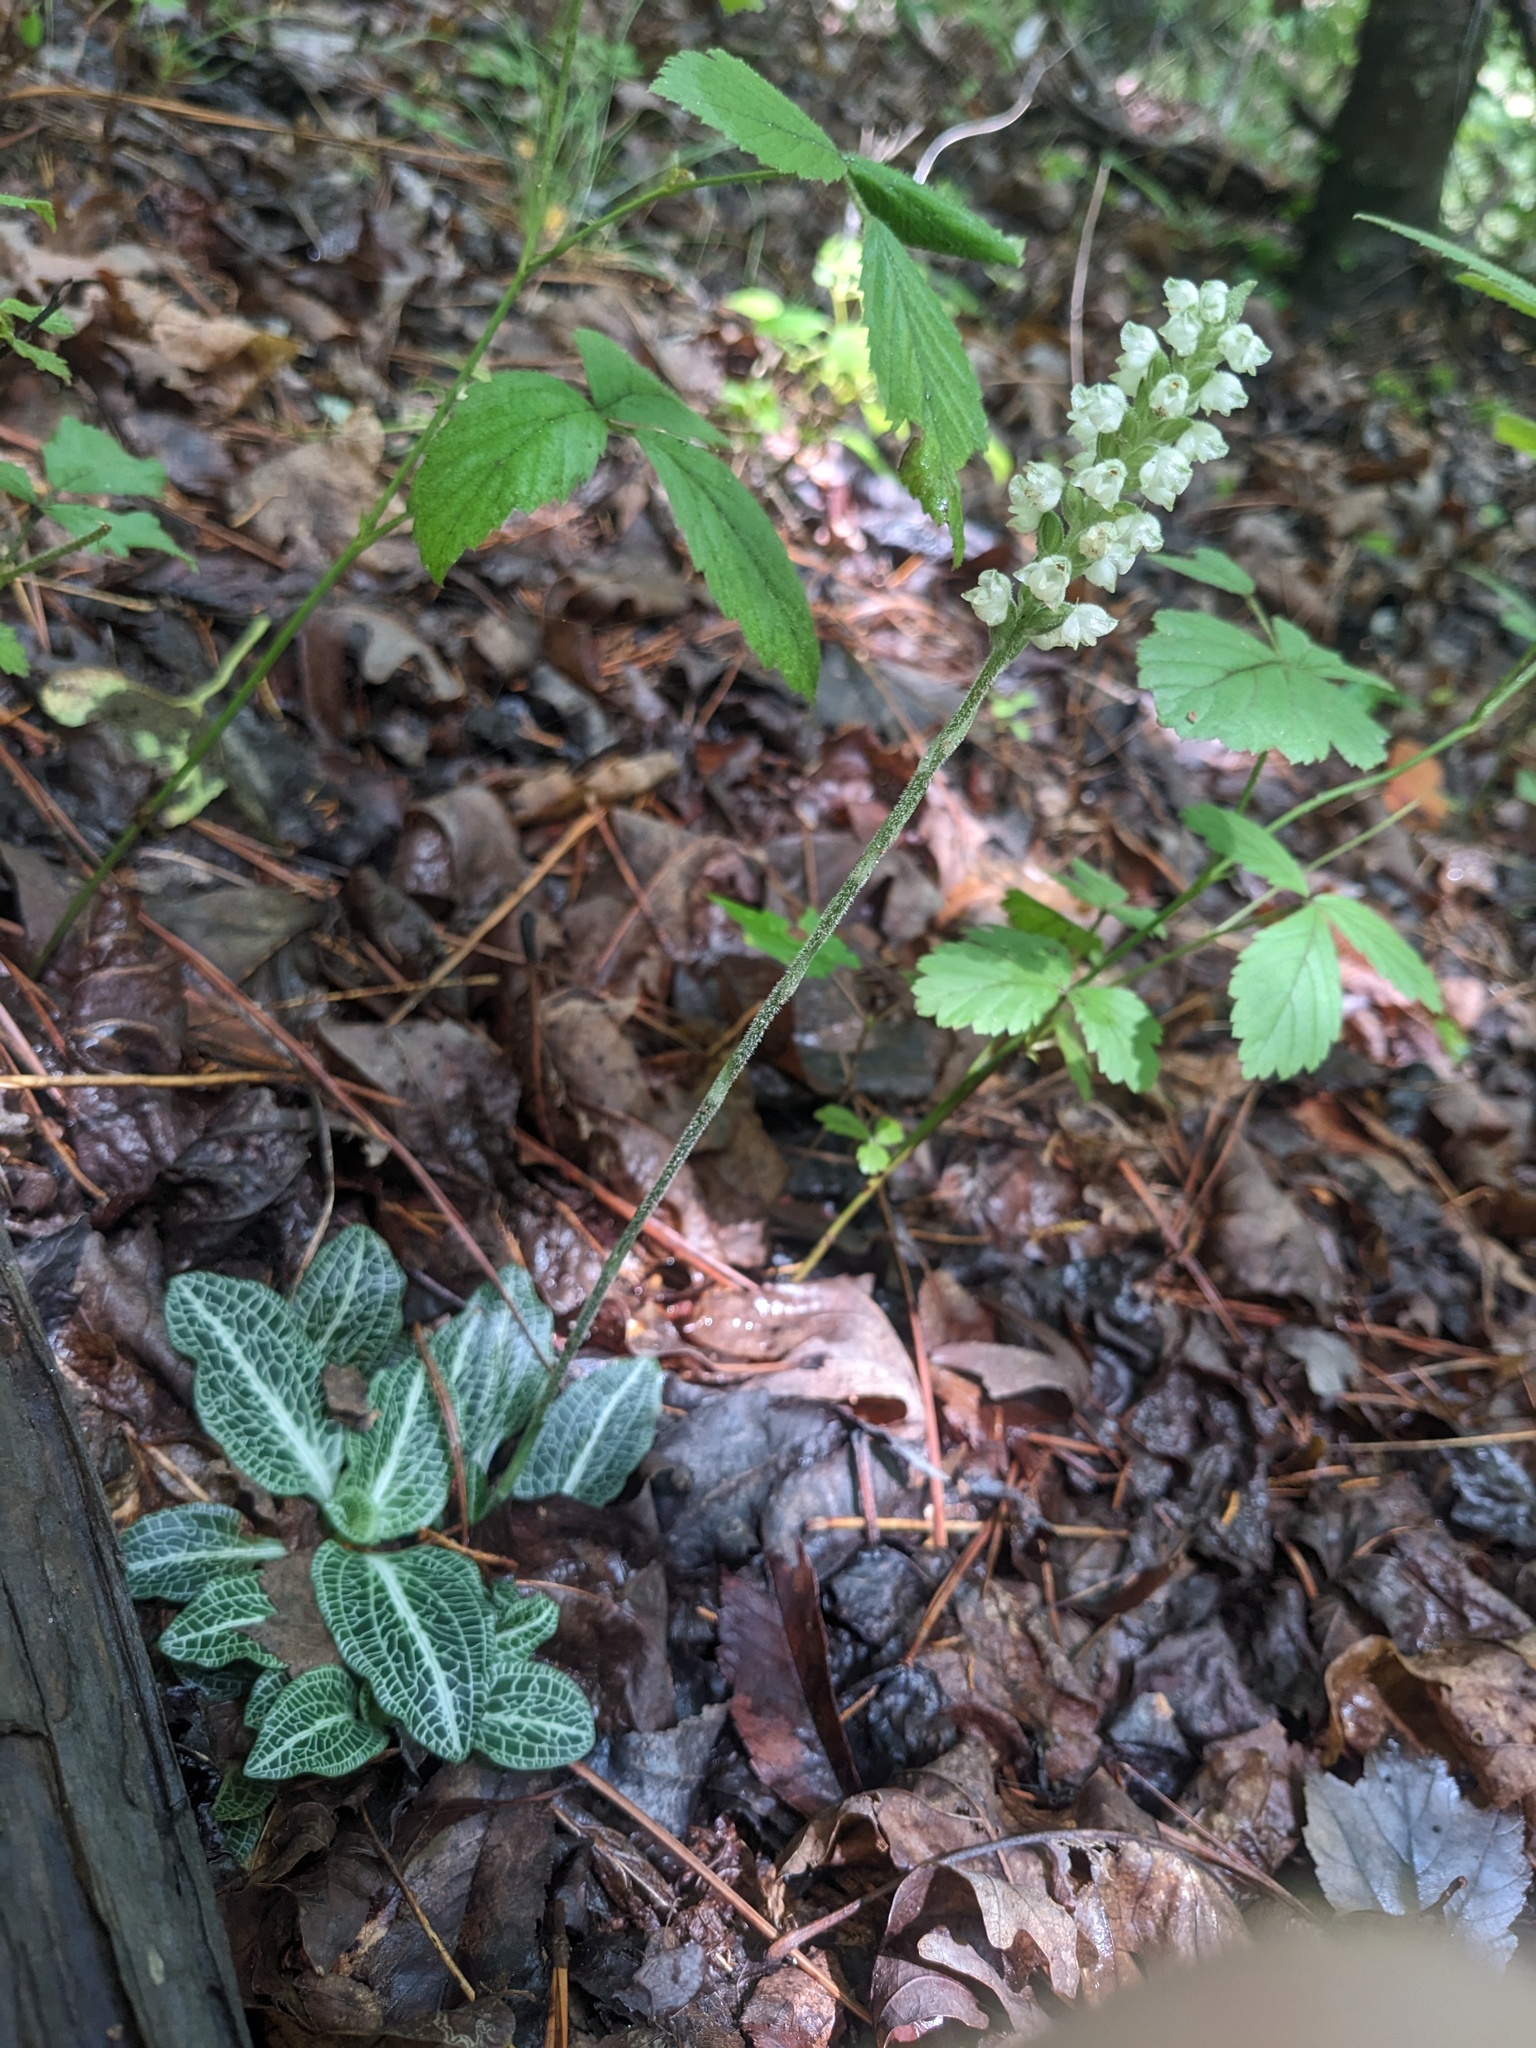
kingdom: Plantae
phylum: Tracheophyta
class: Liliopsida
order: Asparagales
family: Orchidaceae
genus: Goodyera
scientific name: Goodyera pubescens
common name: Downy rattlesnake-plantain
